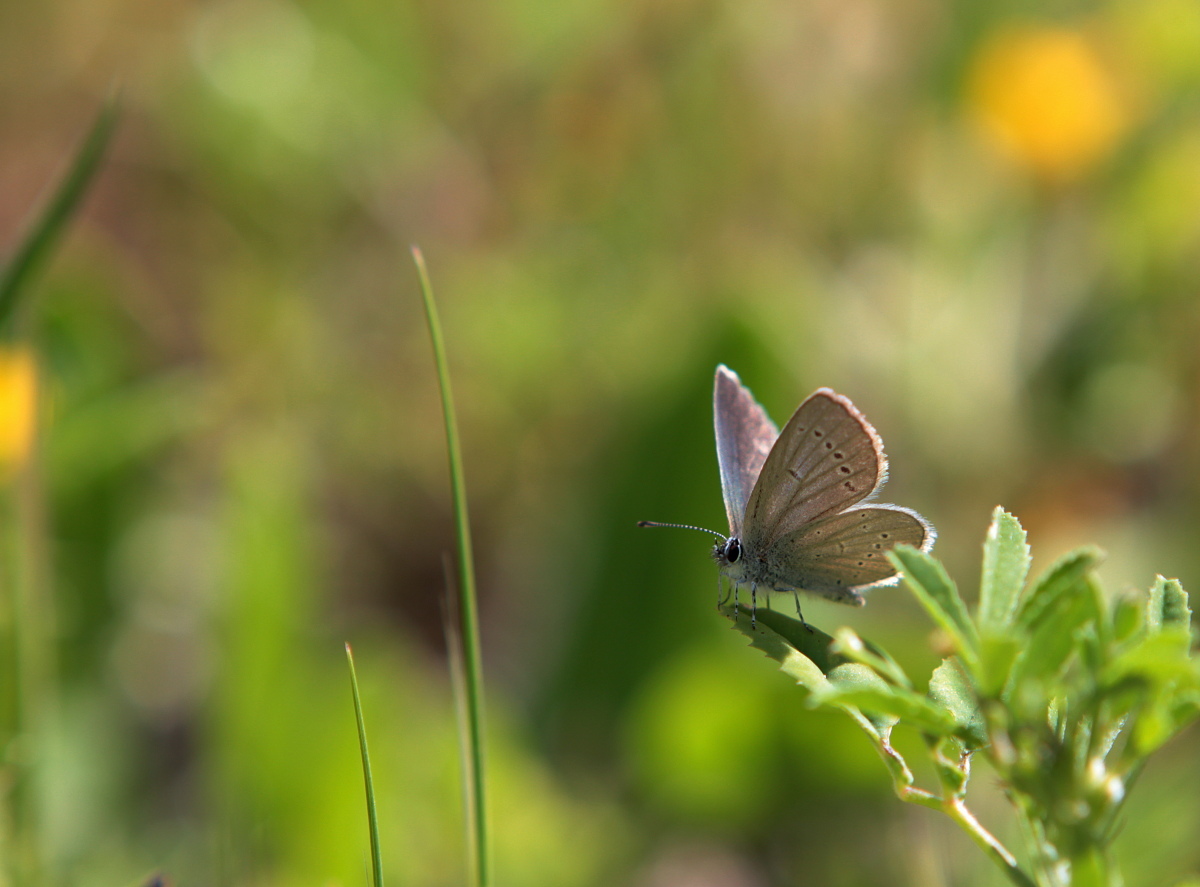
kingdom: Animalia
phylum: Arthropoda
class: Insecta
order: Lepidoptera
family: Lycaenidae
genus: Cupido
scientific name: Cupido minimus
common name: Small blue
